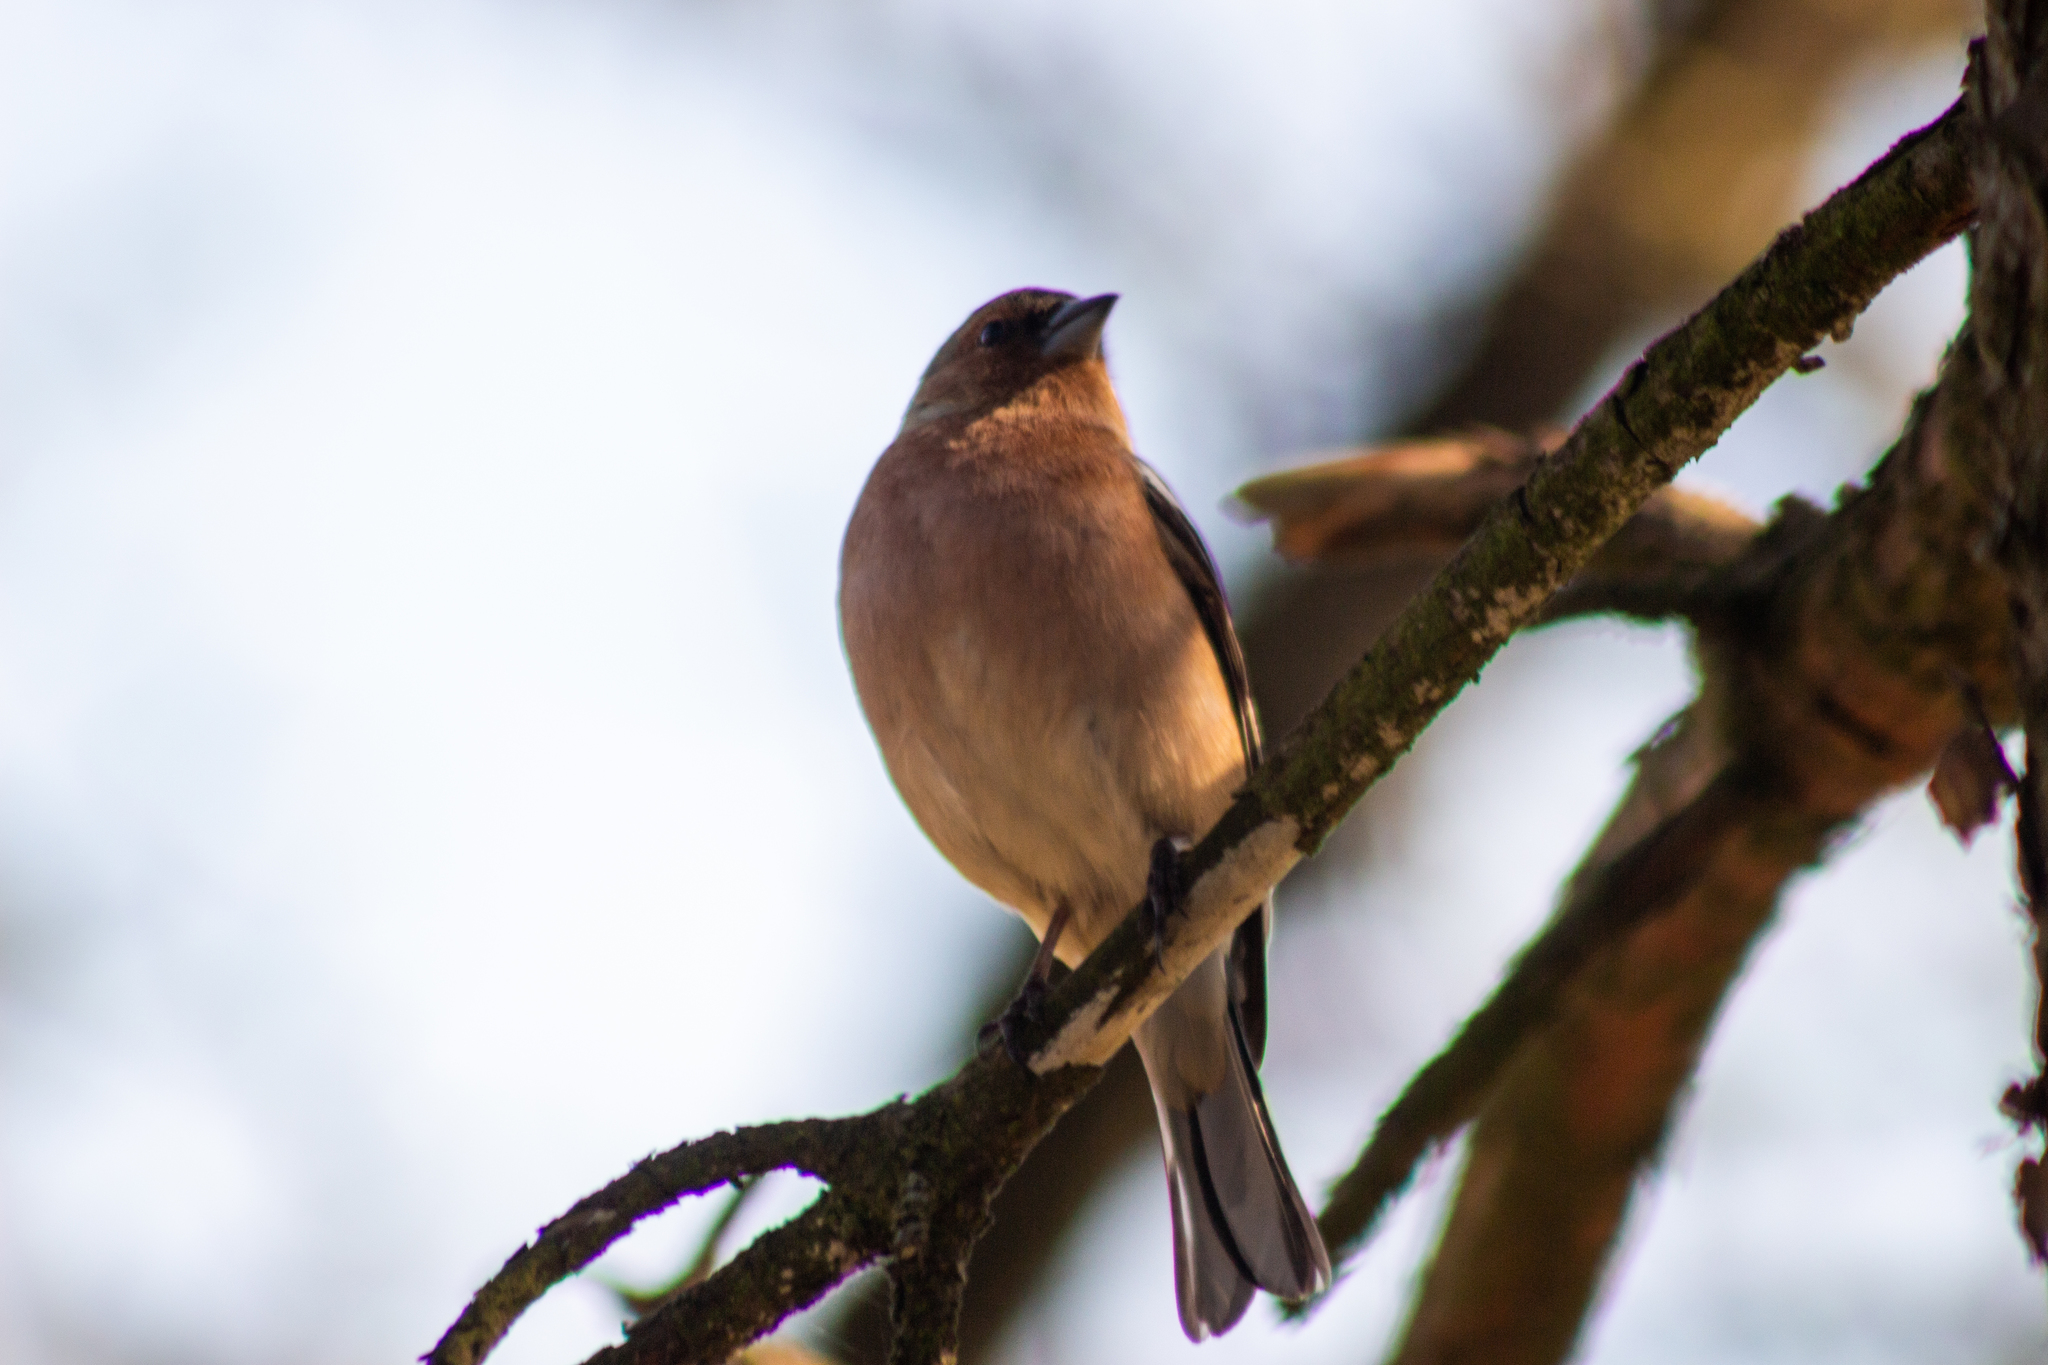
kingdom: Animalia
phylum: Chordata
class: Aves
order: Passeriformes
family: Fringillidae
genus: Fringilla
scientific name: Fringilla coelebs
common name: Common chaffinch
